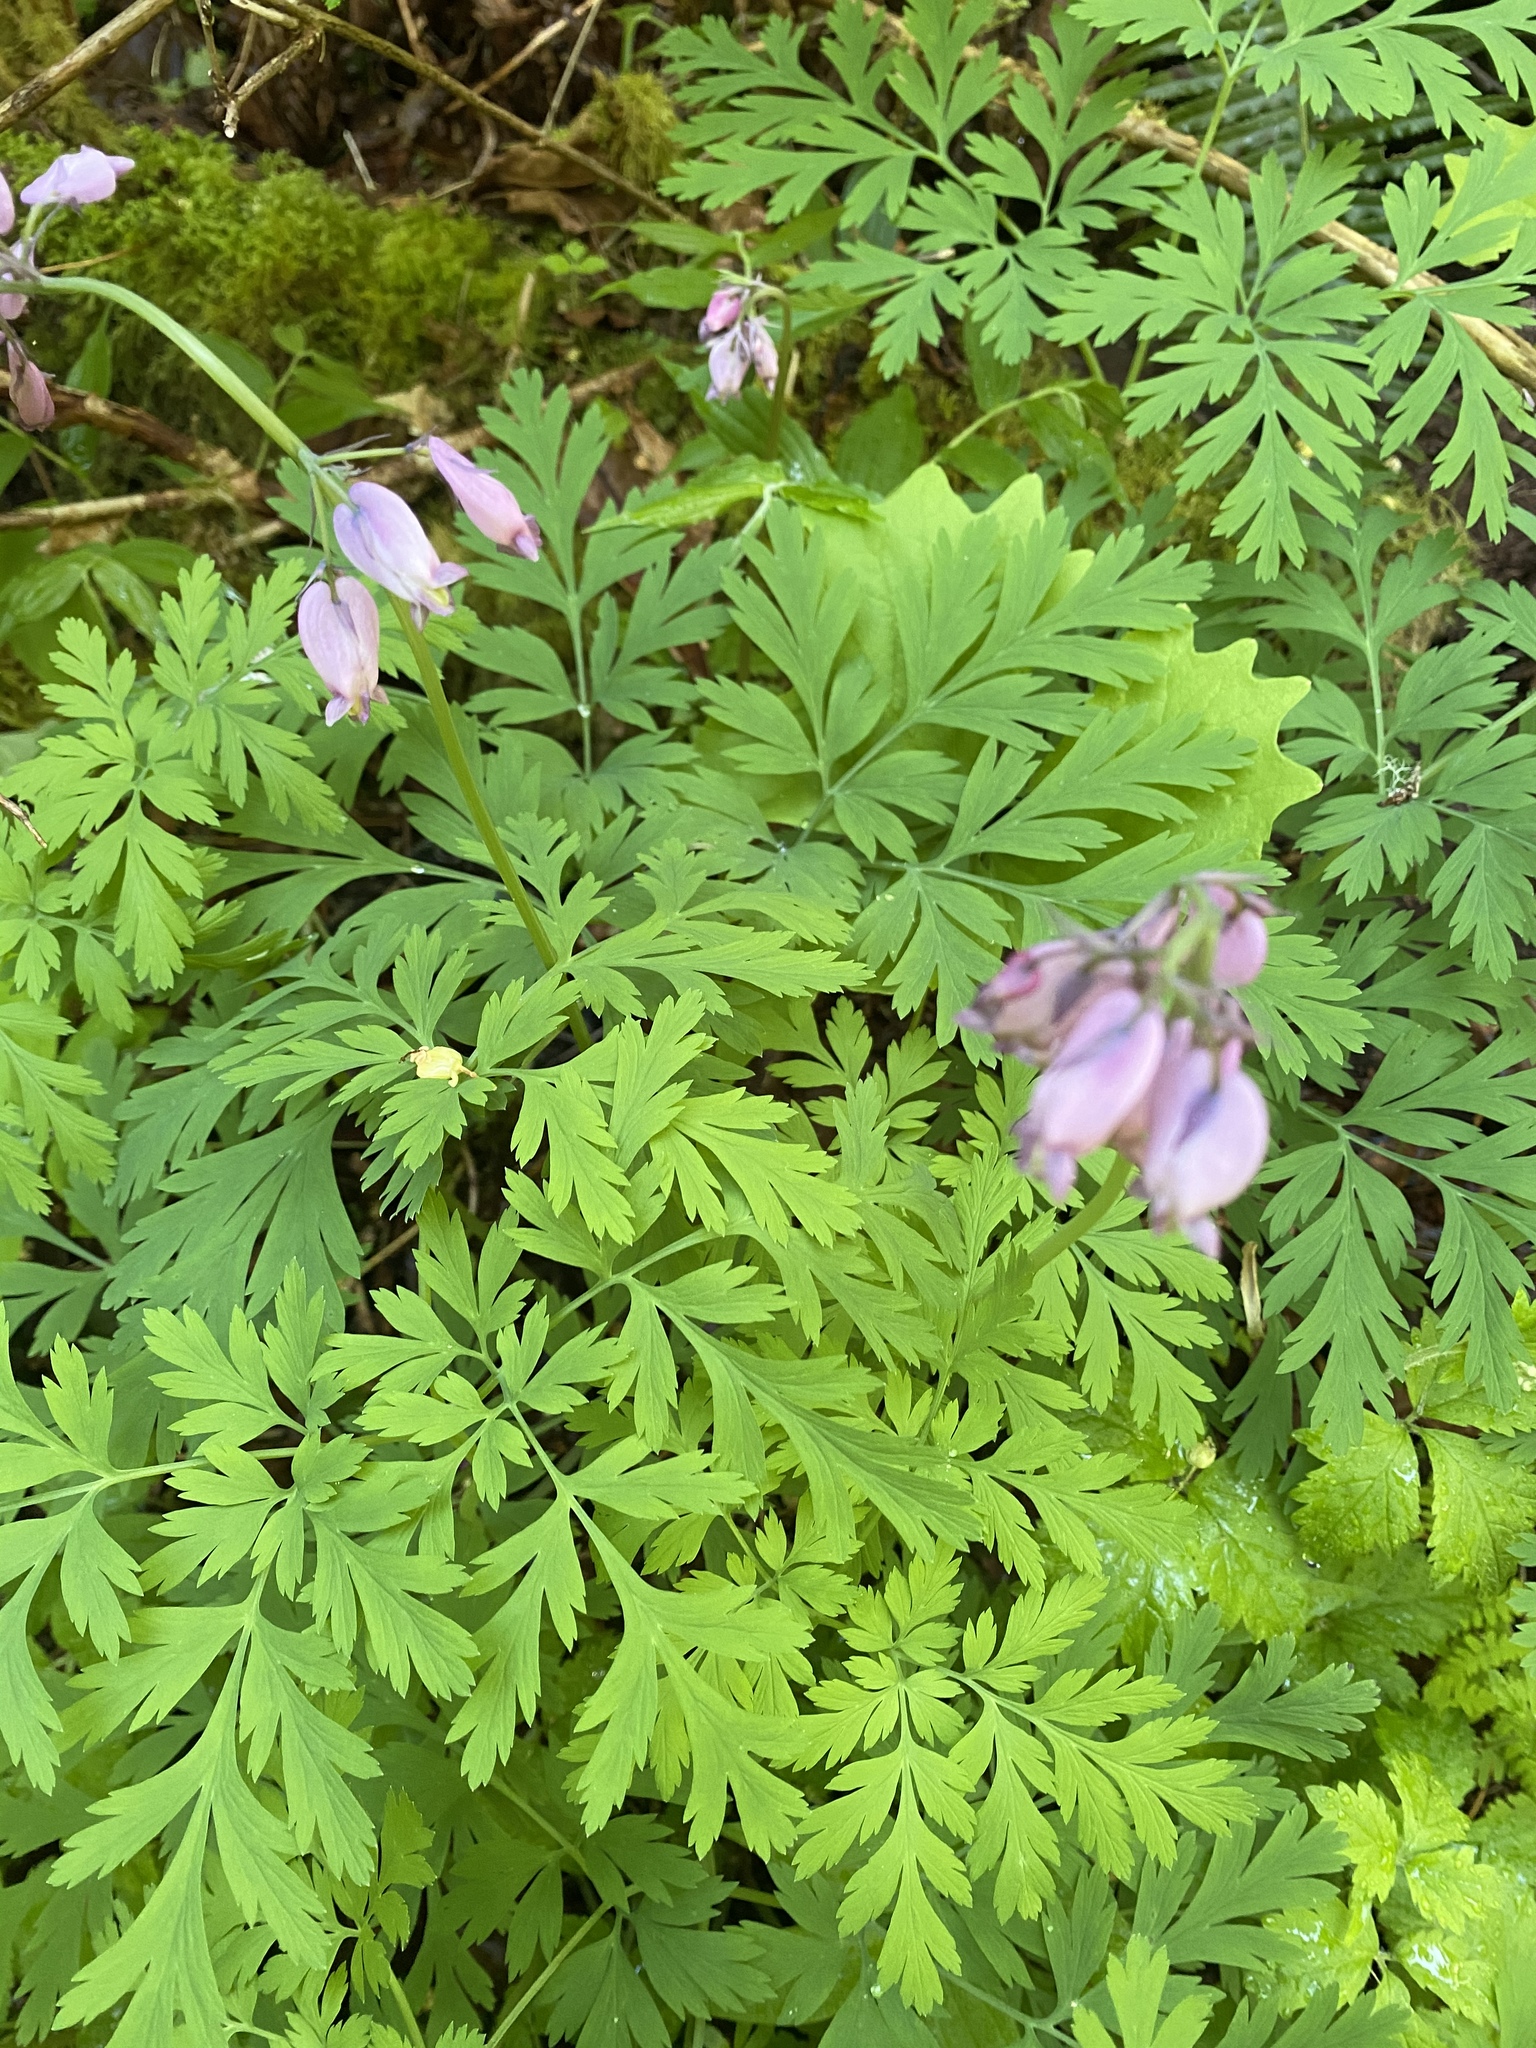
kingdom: Plantae
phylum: Tracheophyta
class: Magnoliopsida
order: Ranunculales
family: Papaveraceae
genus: Dicentra
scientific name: Dicentra formosa
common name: Bleeding-heart
